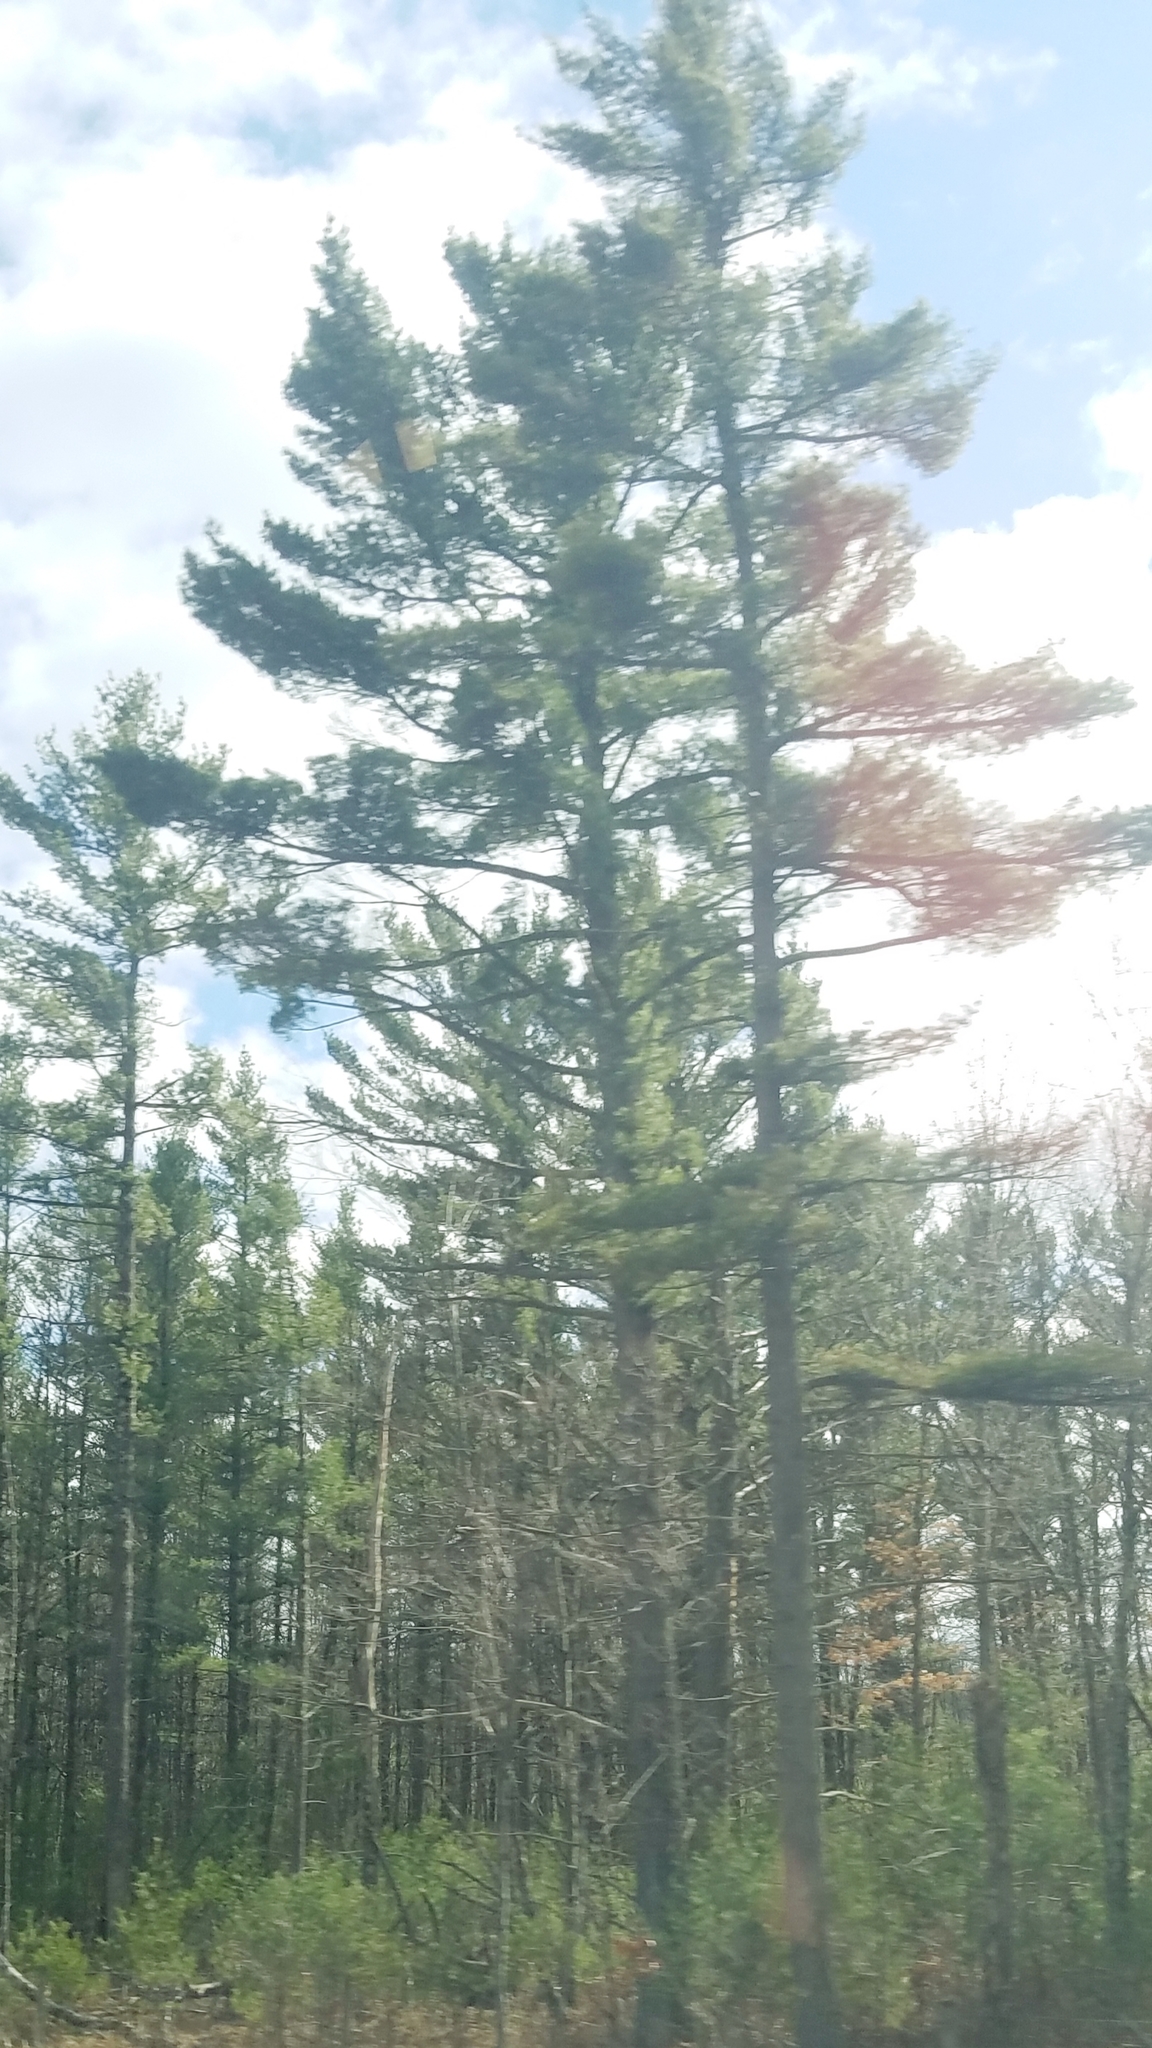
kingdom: Plantae
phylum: Tracheophyta
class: Pinopsida
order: Pinales
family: Pinaceae
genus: Pinus
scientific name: Pinus strobus
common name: Weymouth pine
